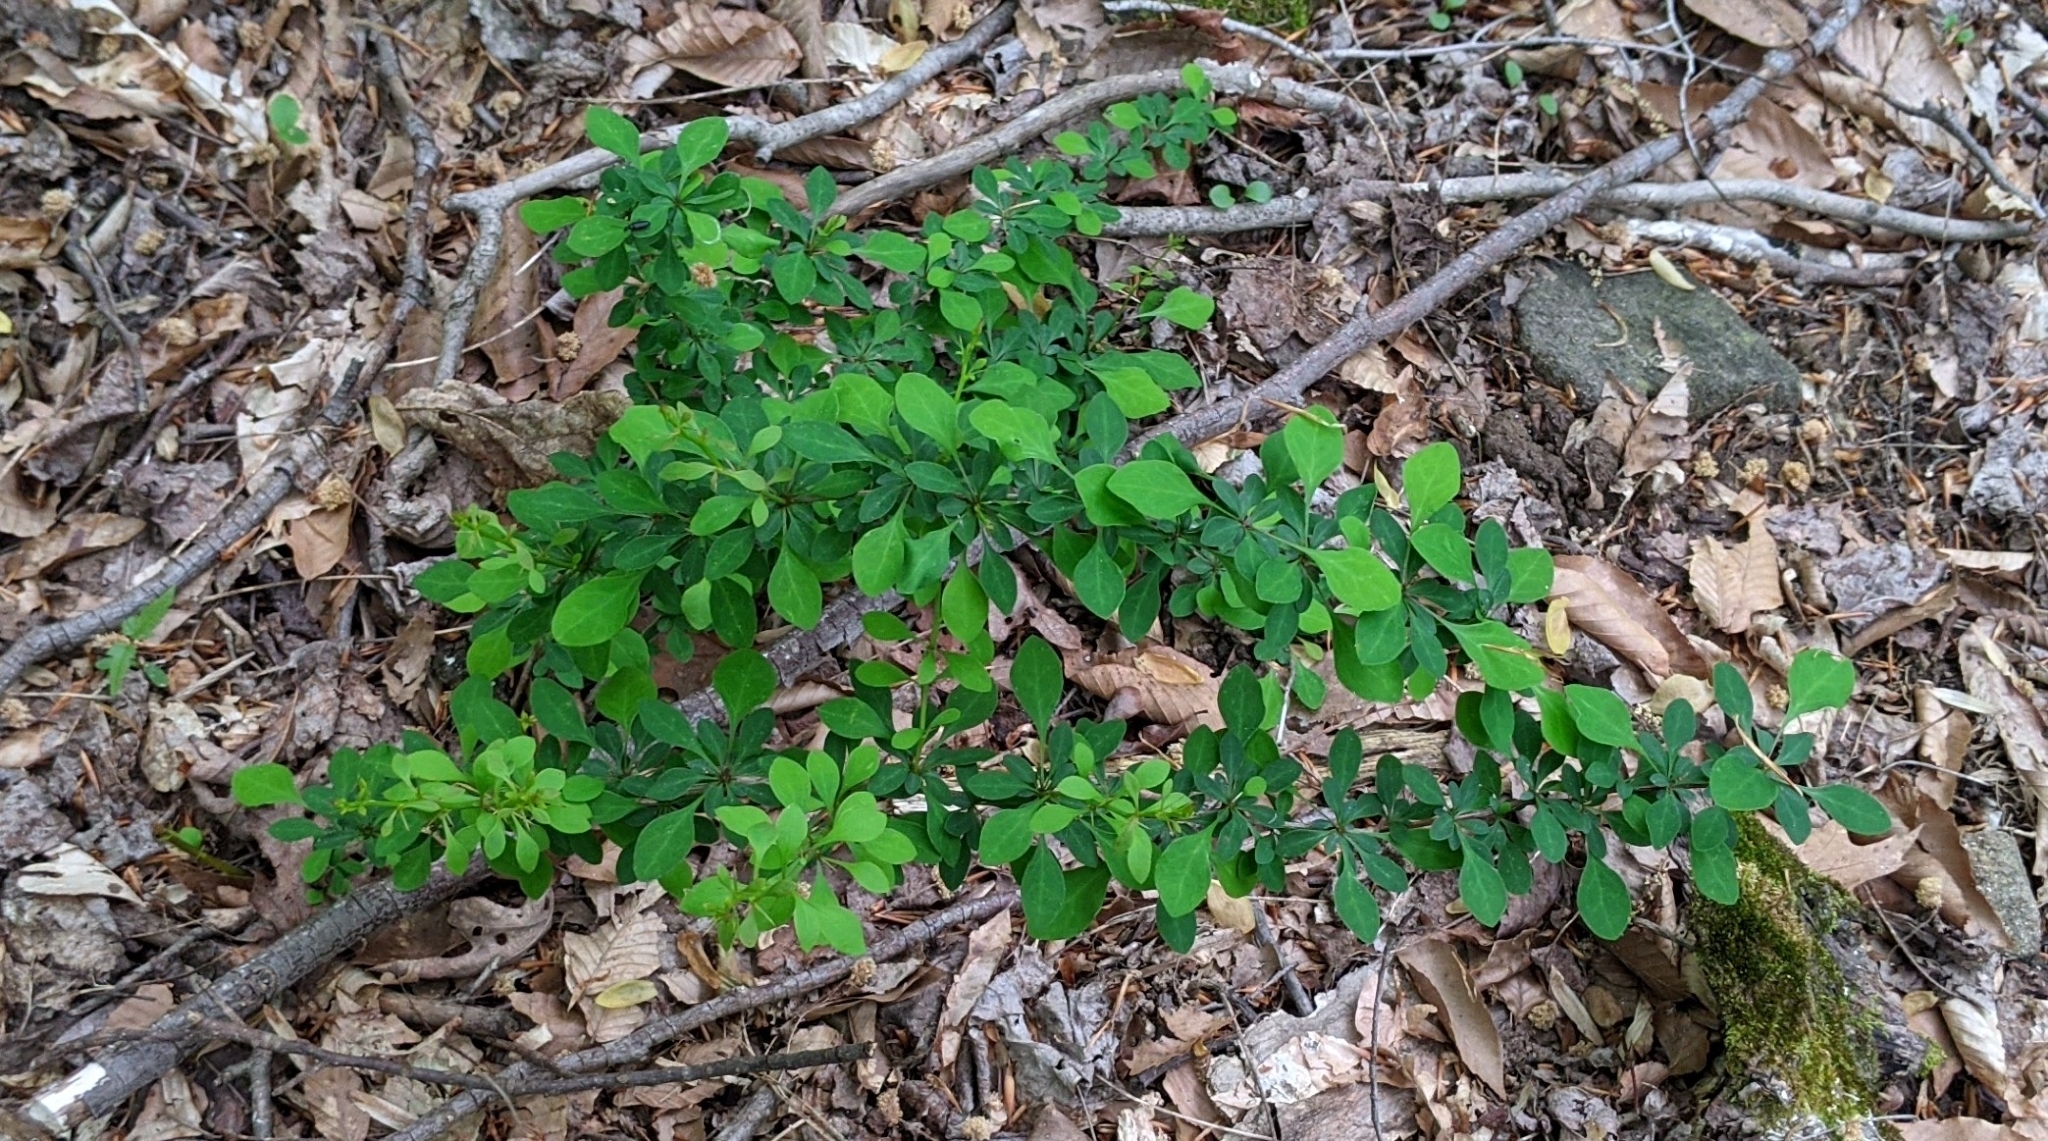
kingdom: Plantae
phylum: Tracheophyta
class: Magnoliopsida
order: Ranunculales
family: Berberidaceae
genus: Berberis
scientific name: Berberis thunbergii
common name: Japanese barberry
